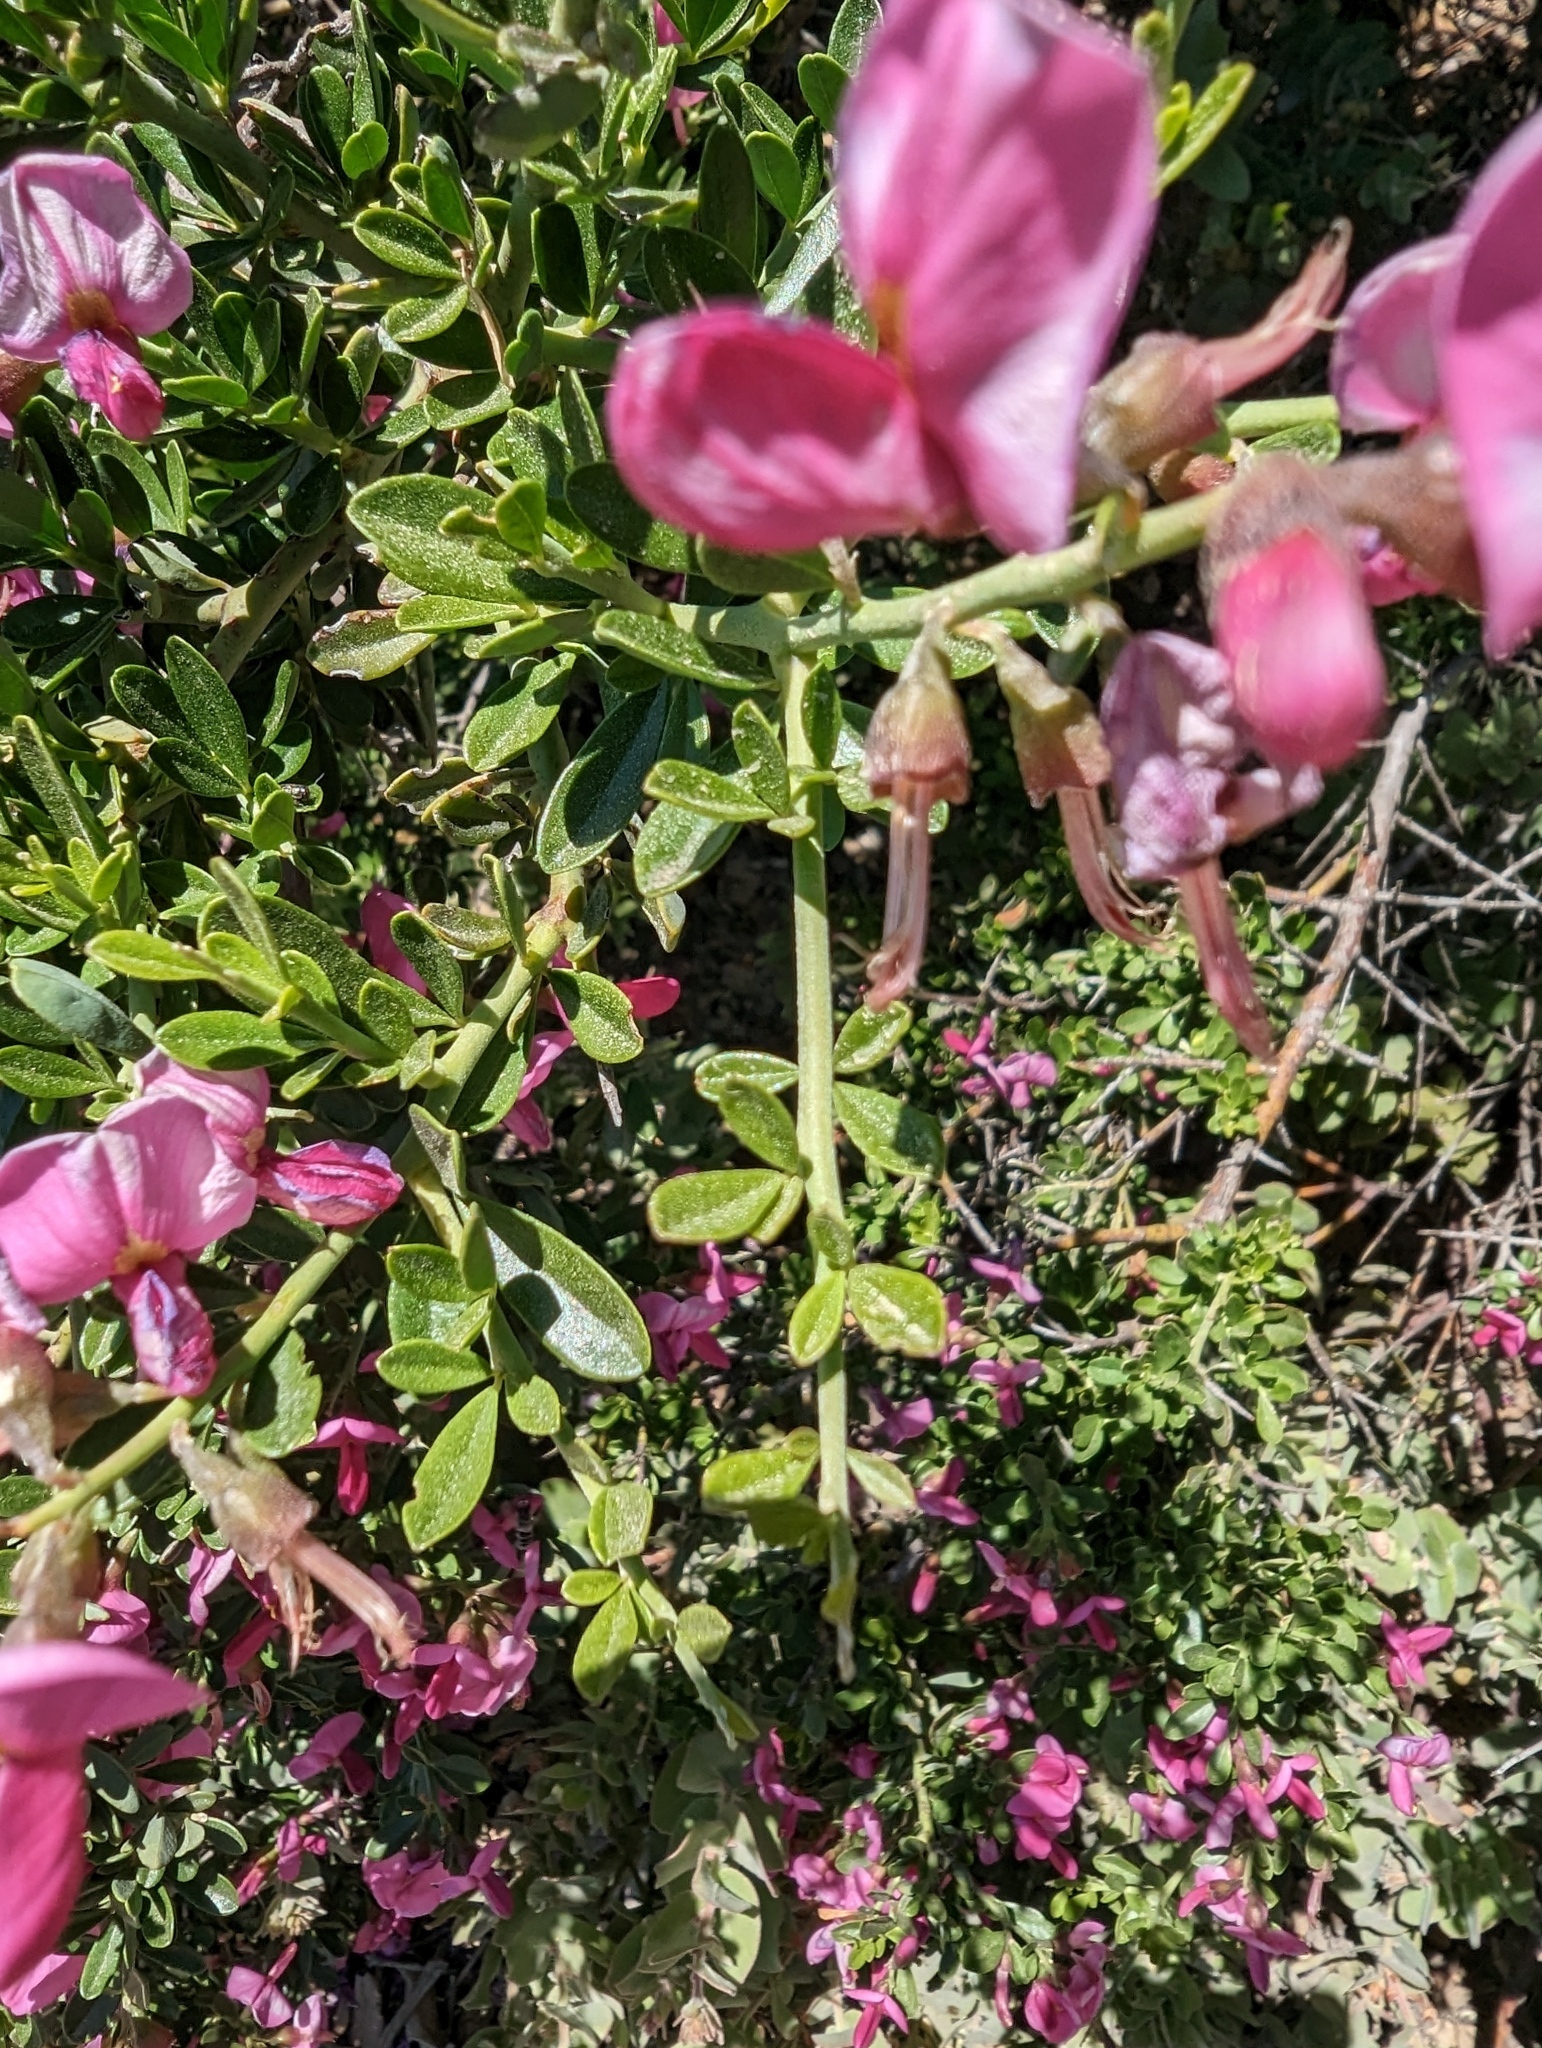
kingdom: Plantae
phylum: Tracheophyta
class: Magnoliopsida
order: Fabales
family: Fabaceae
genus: Pickeringia
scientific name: Pickeringia montana
